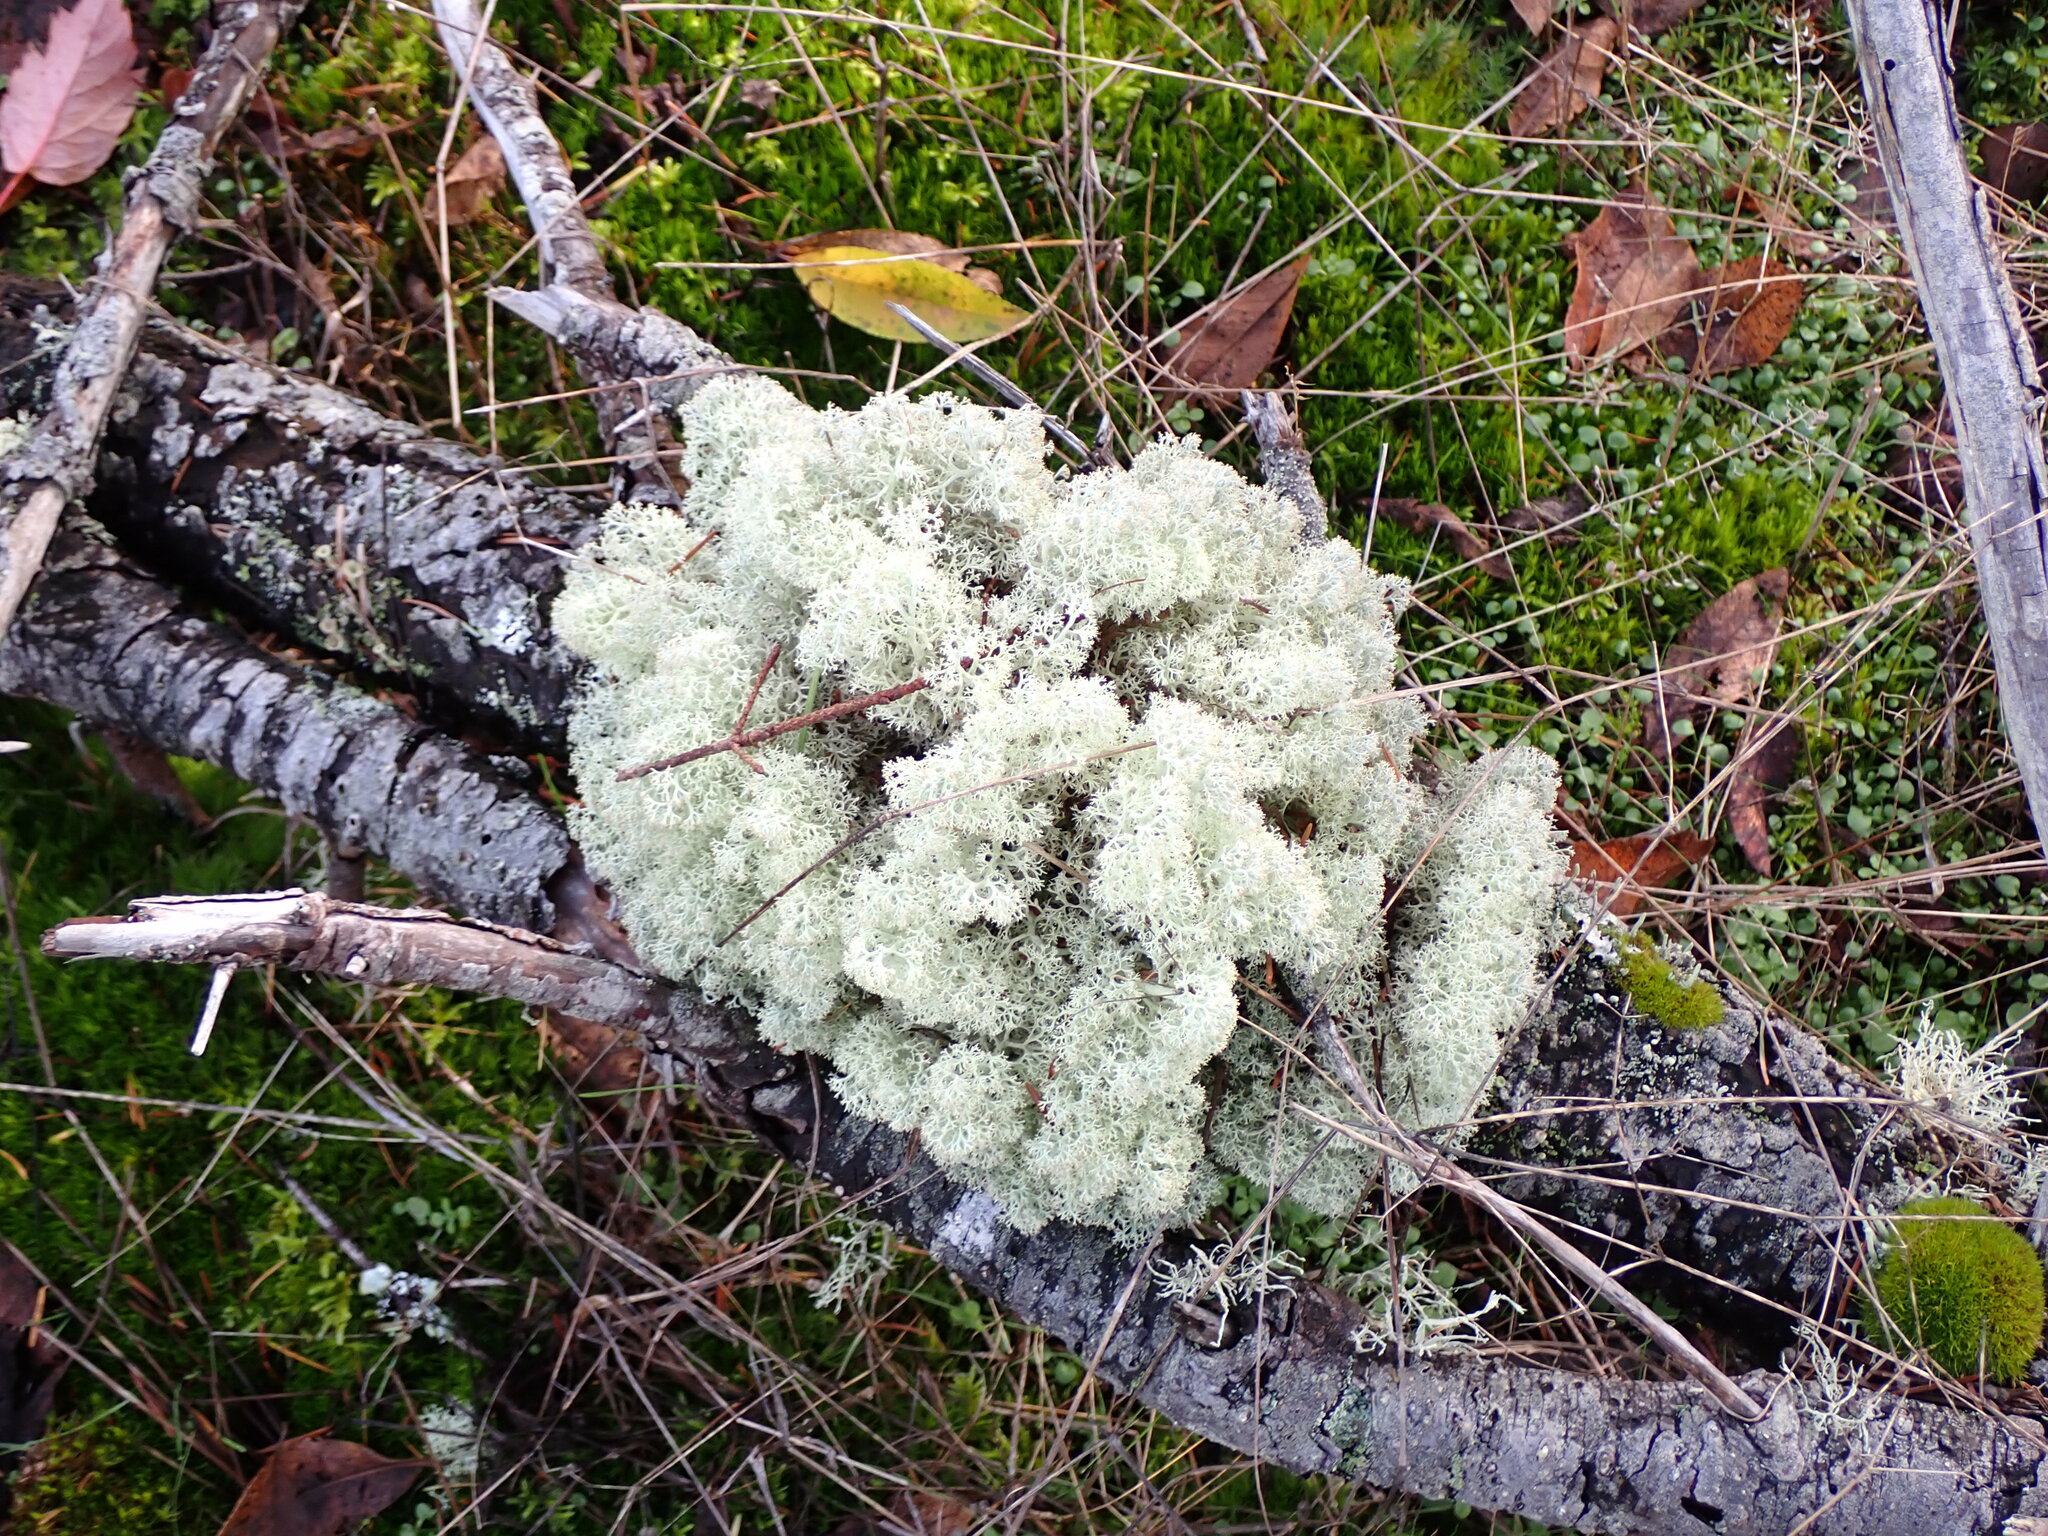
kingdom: Fungi
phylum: Ascomycota
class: Lecanoromycetes
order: Lecanorales
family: Cladoniaceae
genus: Cladonia
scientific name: Cladonia portentosa
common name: Reindeer lichen
